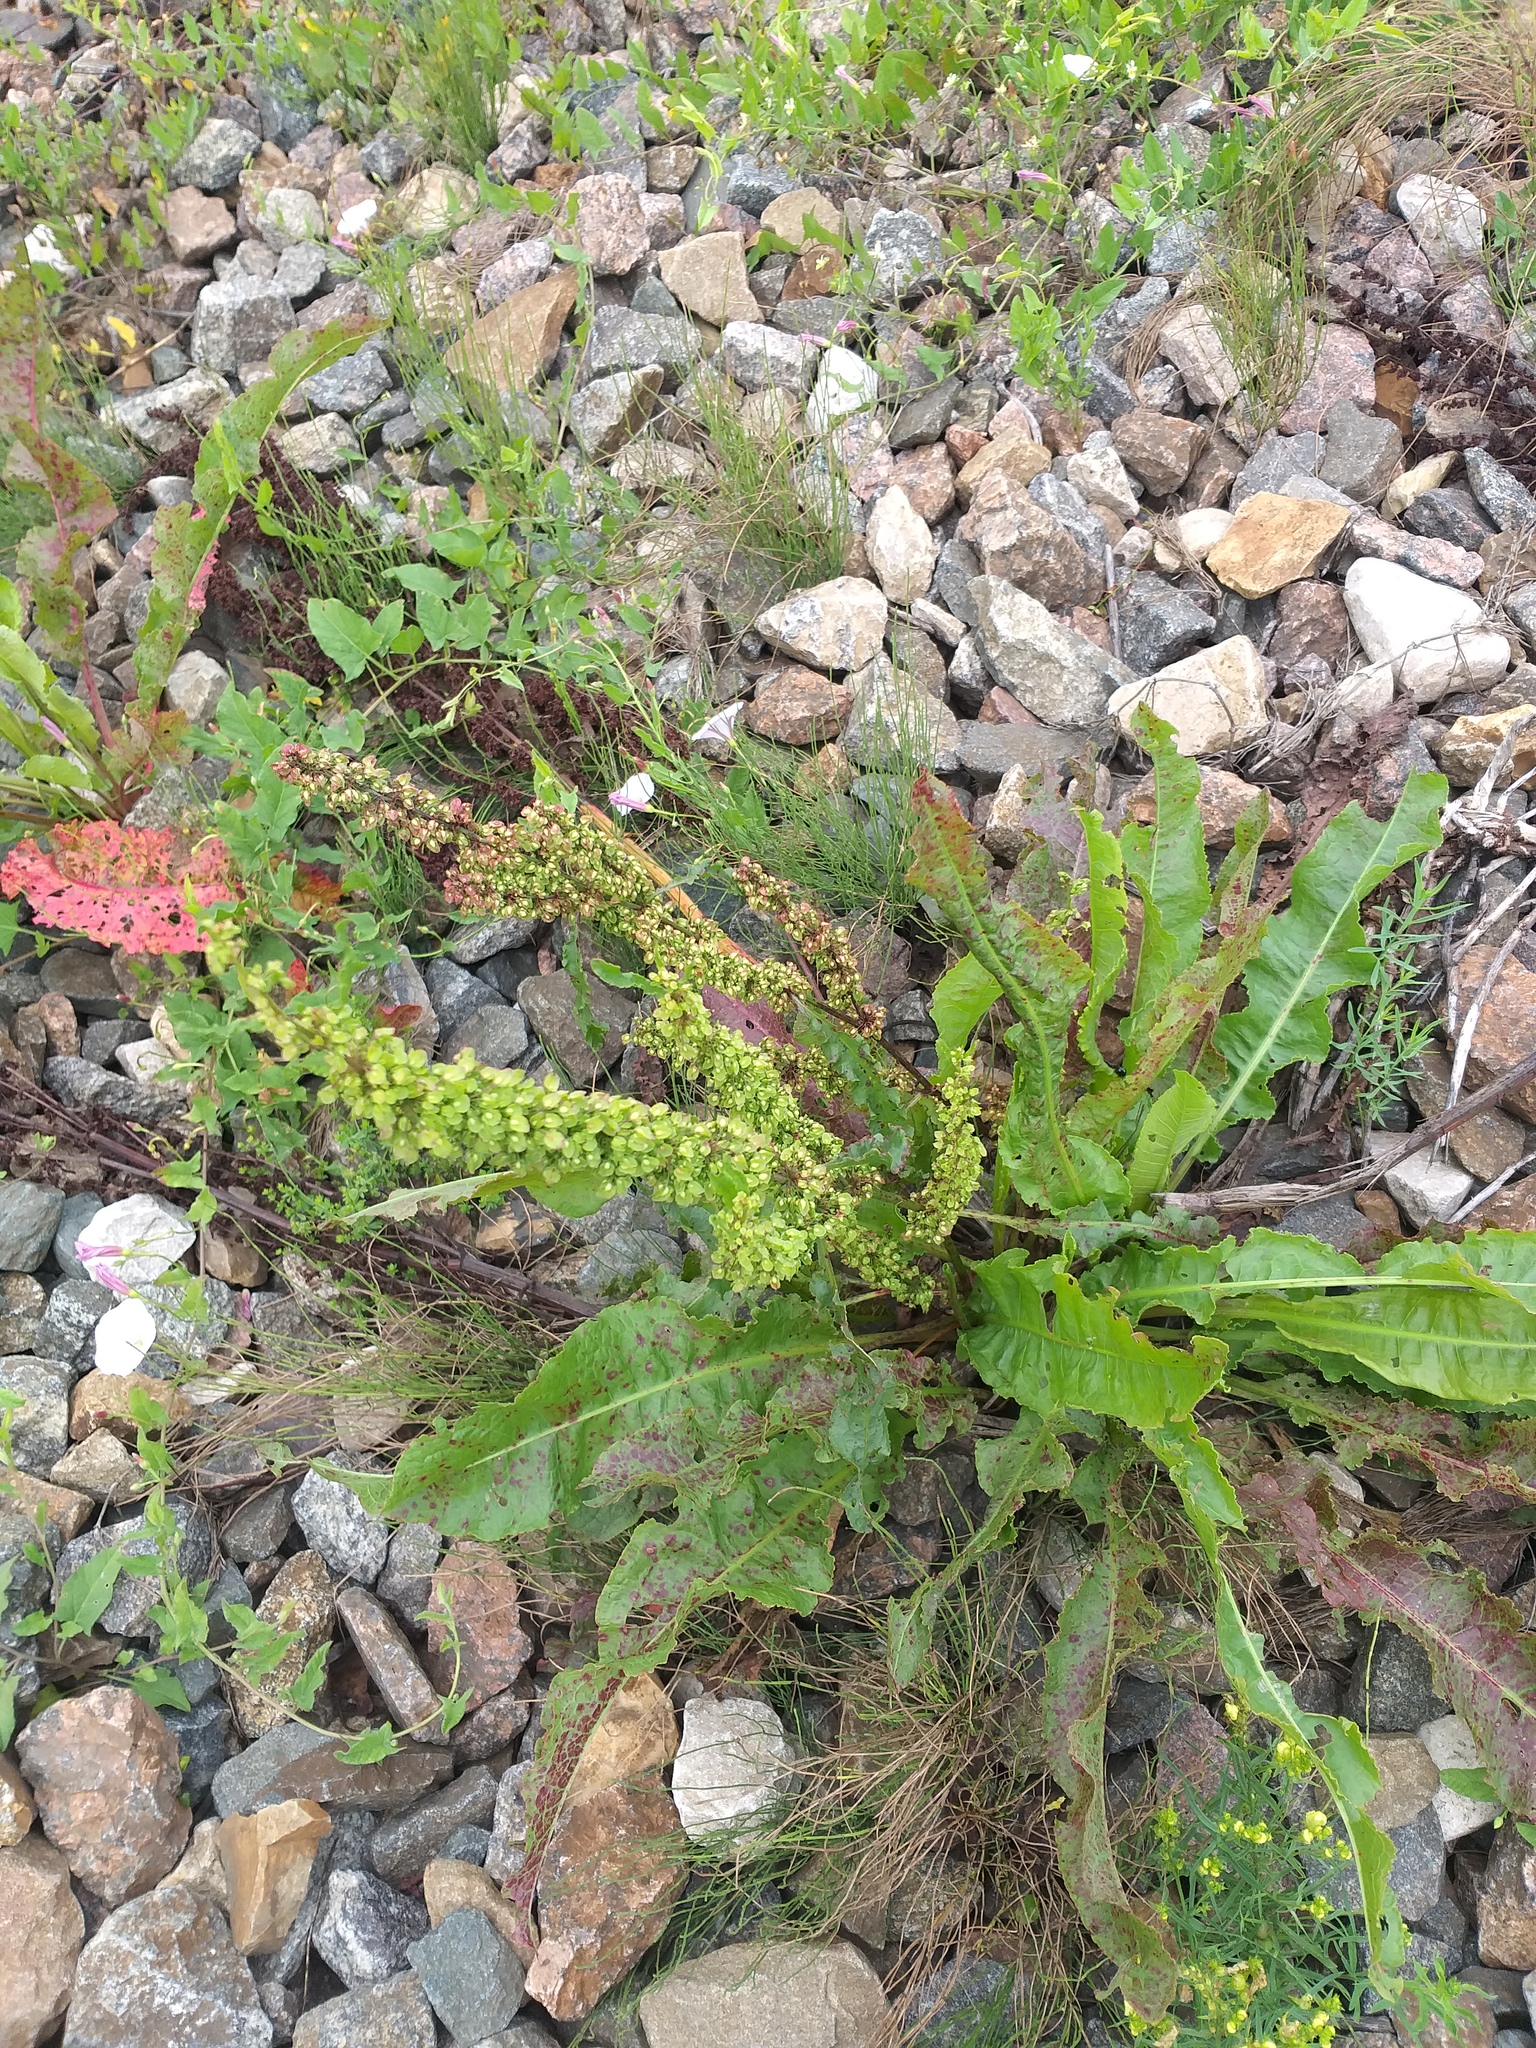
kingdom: Plantae
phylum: Tracheophyta
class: Magnoliopsida
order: Caryophyllales
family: Polygonaceae
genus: Rumex
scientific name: Rumex crispus
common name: Curled dock
